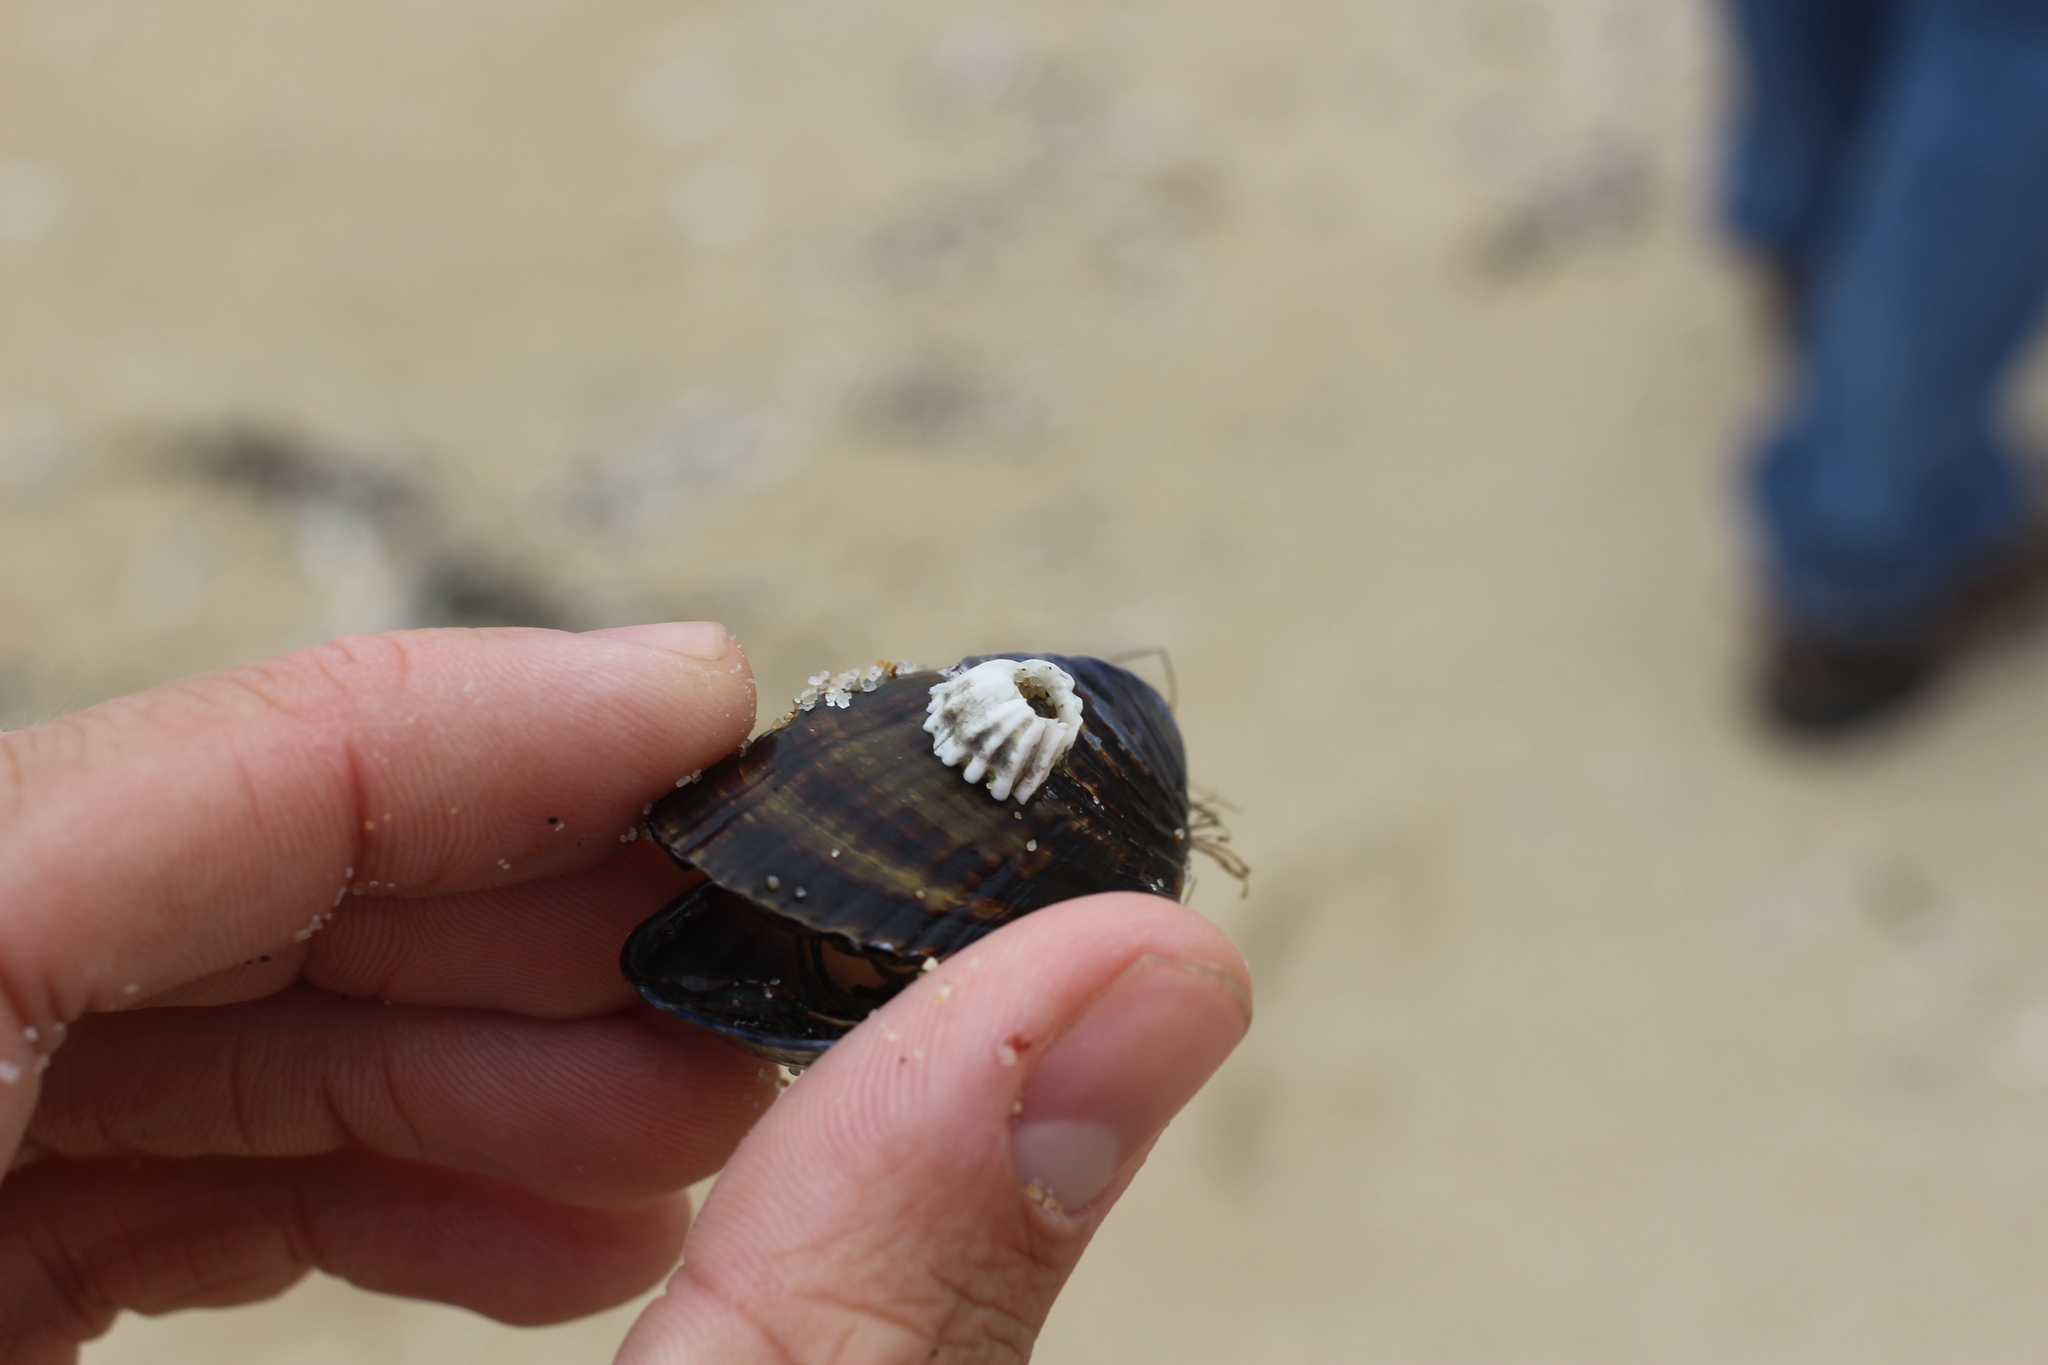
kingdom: Animalia
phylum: Arthropoda
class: Maxillopoda
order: Sessilia
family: Balanidae
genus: Balanus
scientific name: Balanus glandula
